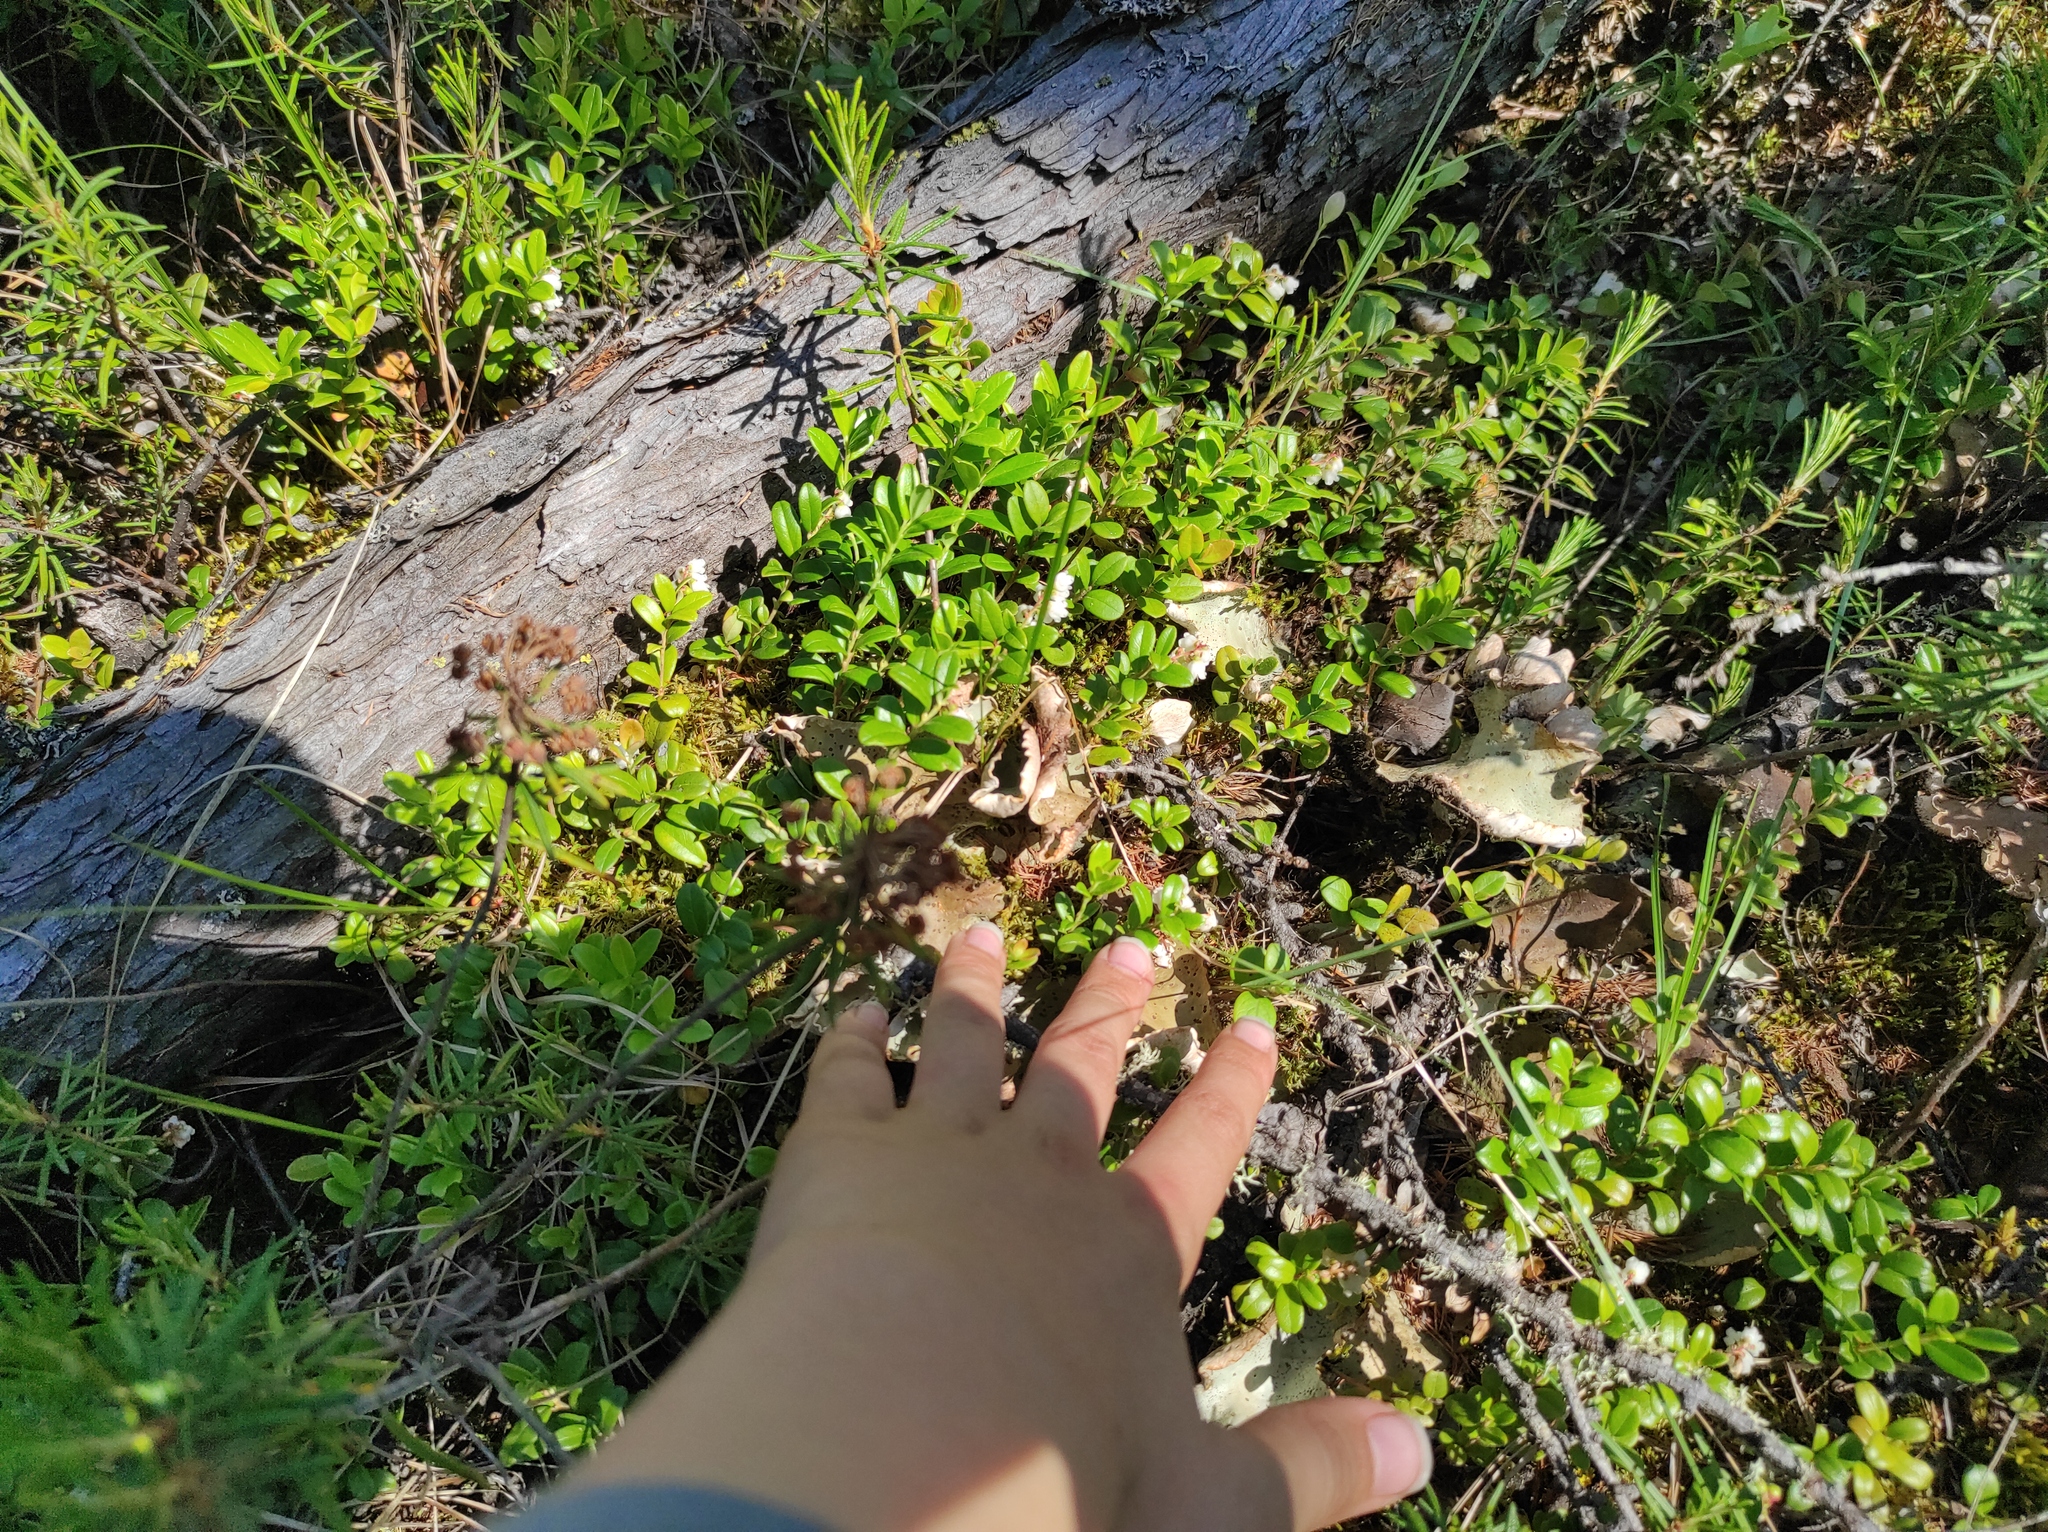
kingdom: Plantae
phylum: Tracheophyta
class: Magnoliopsida
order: Ericales
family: Ericaceae
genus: Vaccinium
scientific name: Vaccinium vitis-idaea
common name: Cowberry
